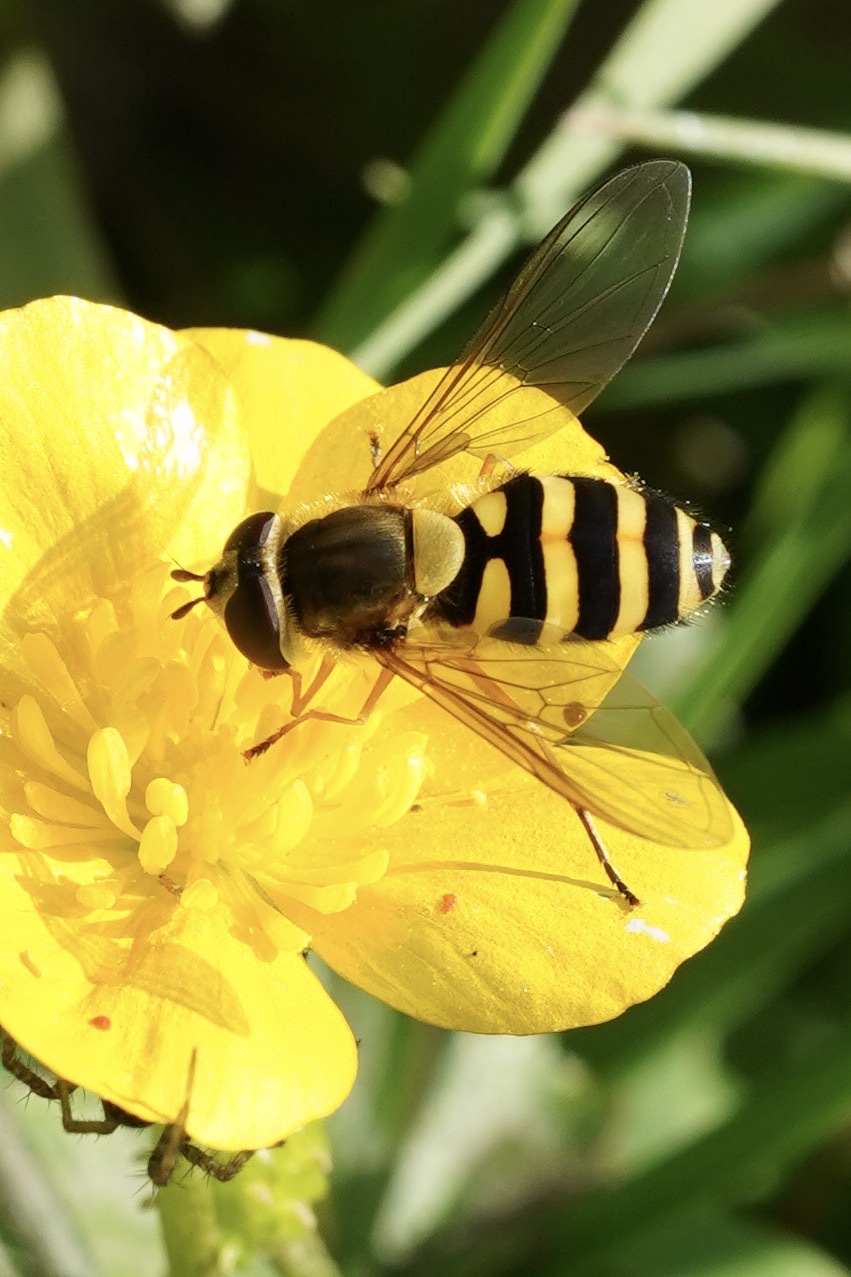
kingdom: Animalia
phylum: Arthropoda
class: Insecta
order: Diptera
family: Syrphidae
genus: Syrphus
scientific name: Syrphus ribesii
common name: Common flower fly
